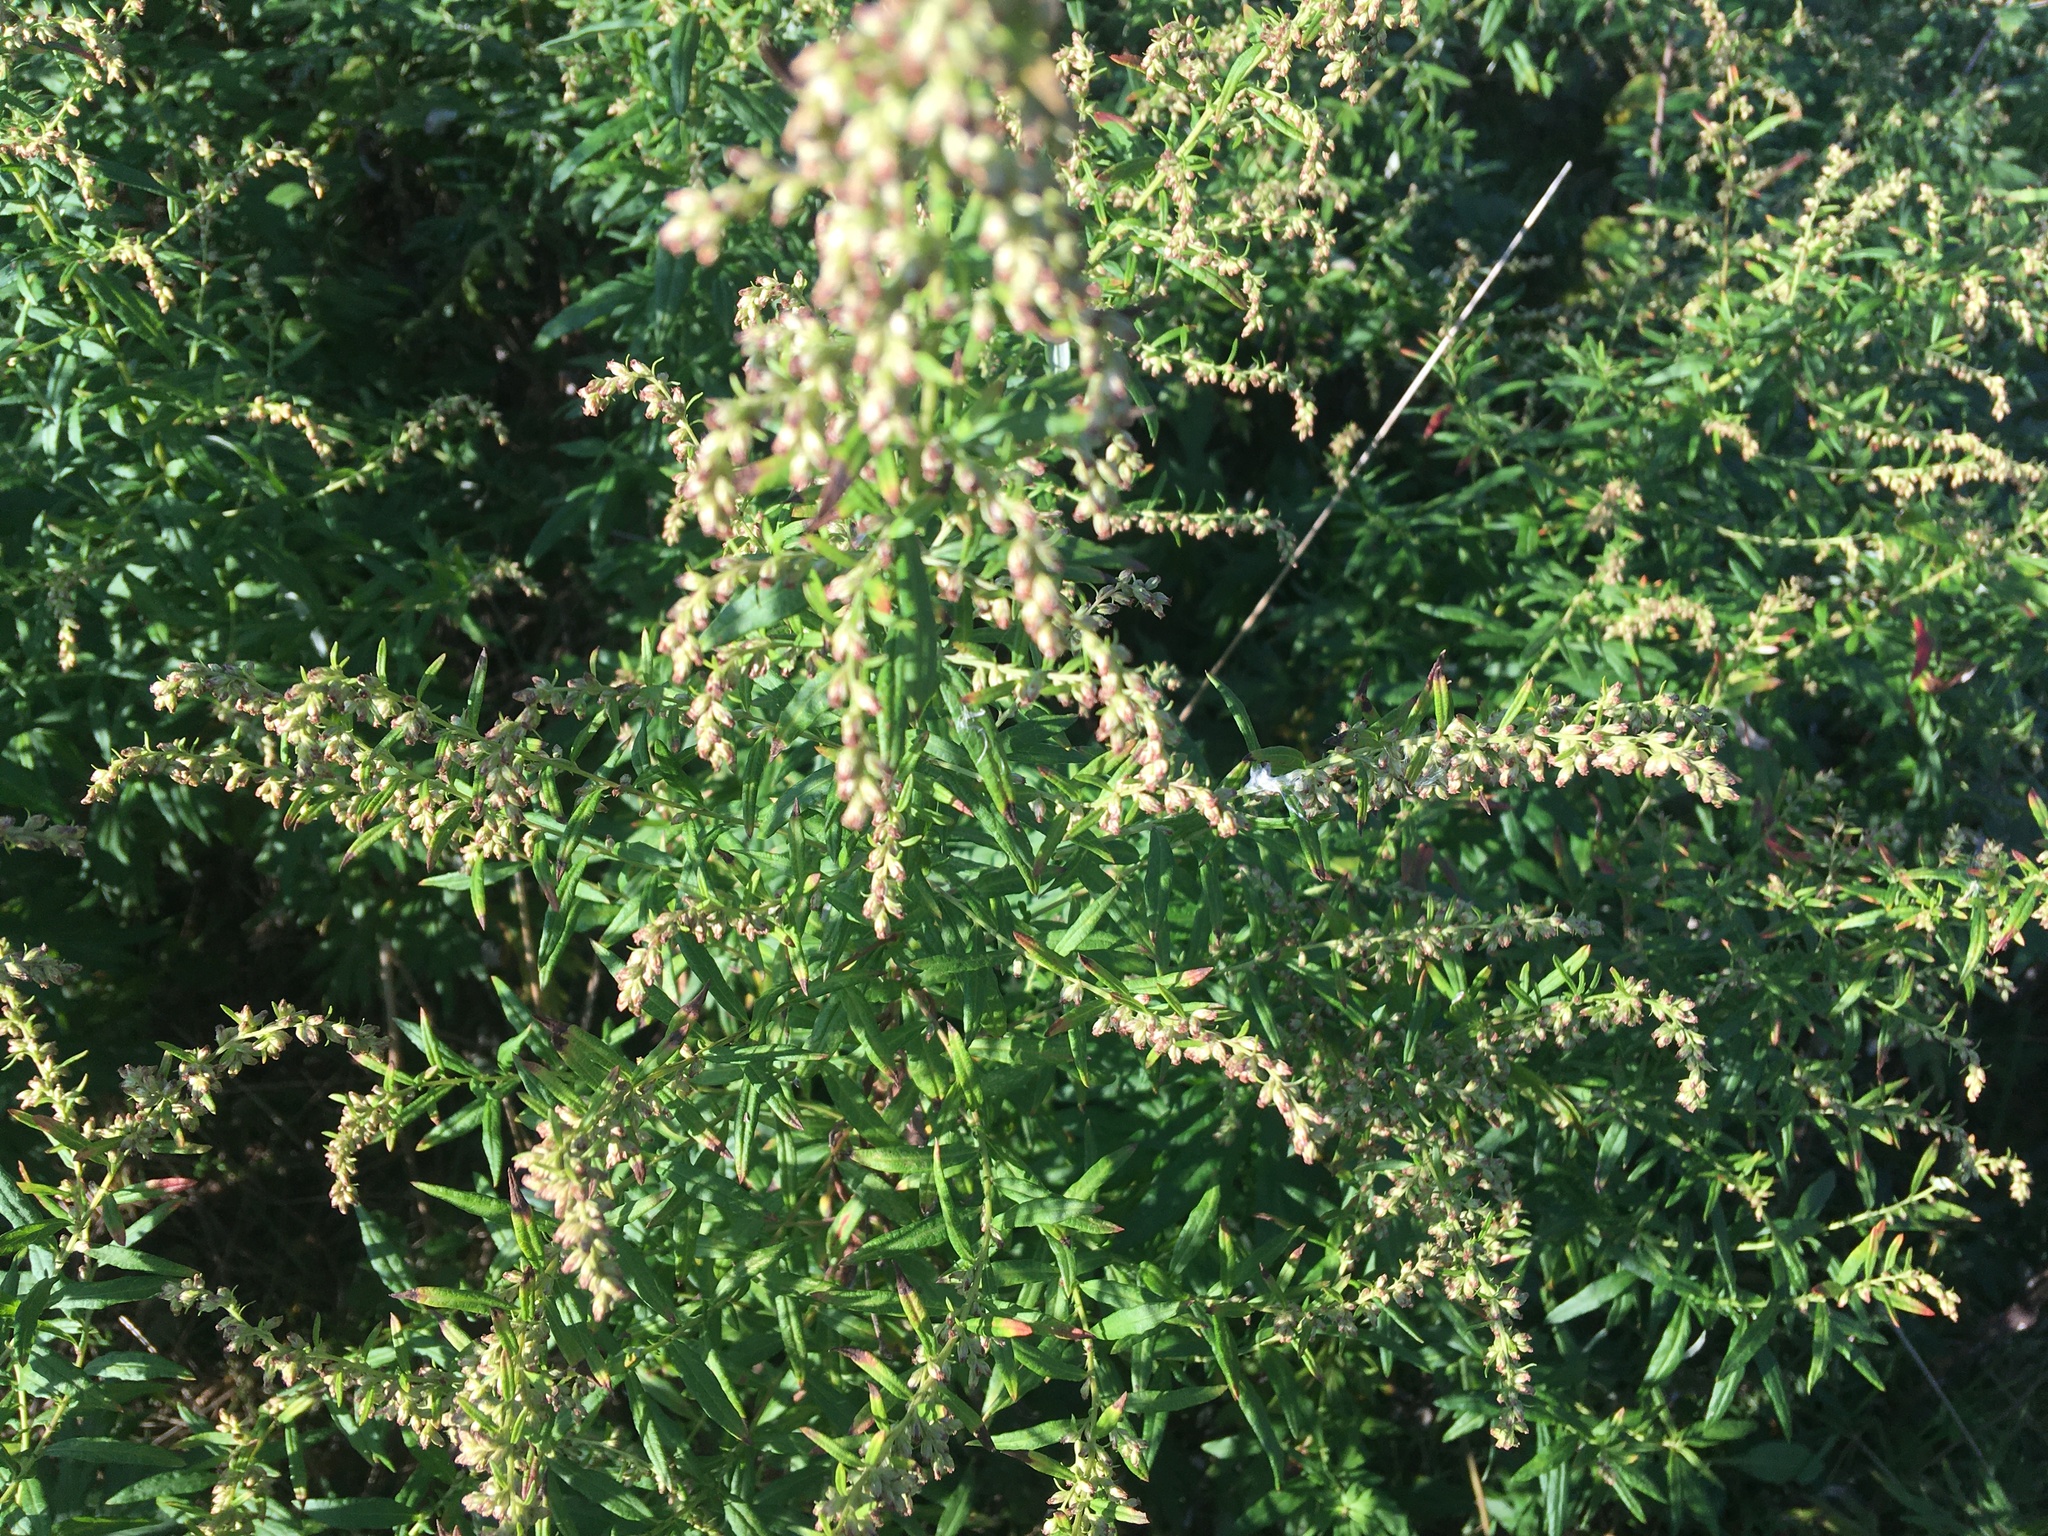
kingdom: Plantae
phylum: Tracheophyta
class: Magnoliopsida
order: Asterales
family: Asteraceae
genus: Artemisia
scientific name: Artemisia vulgaris
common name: Mugwort
